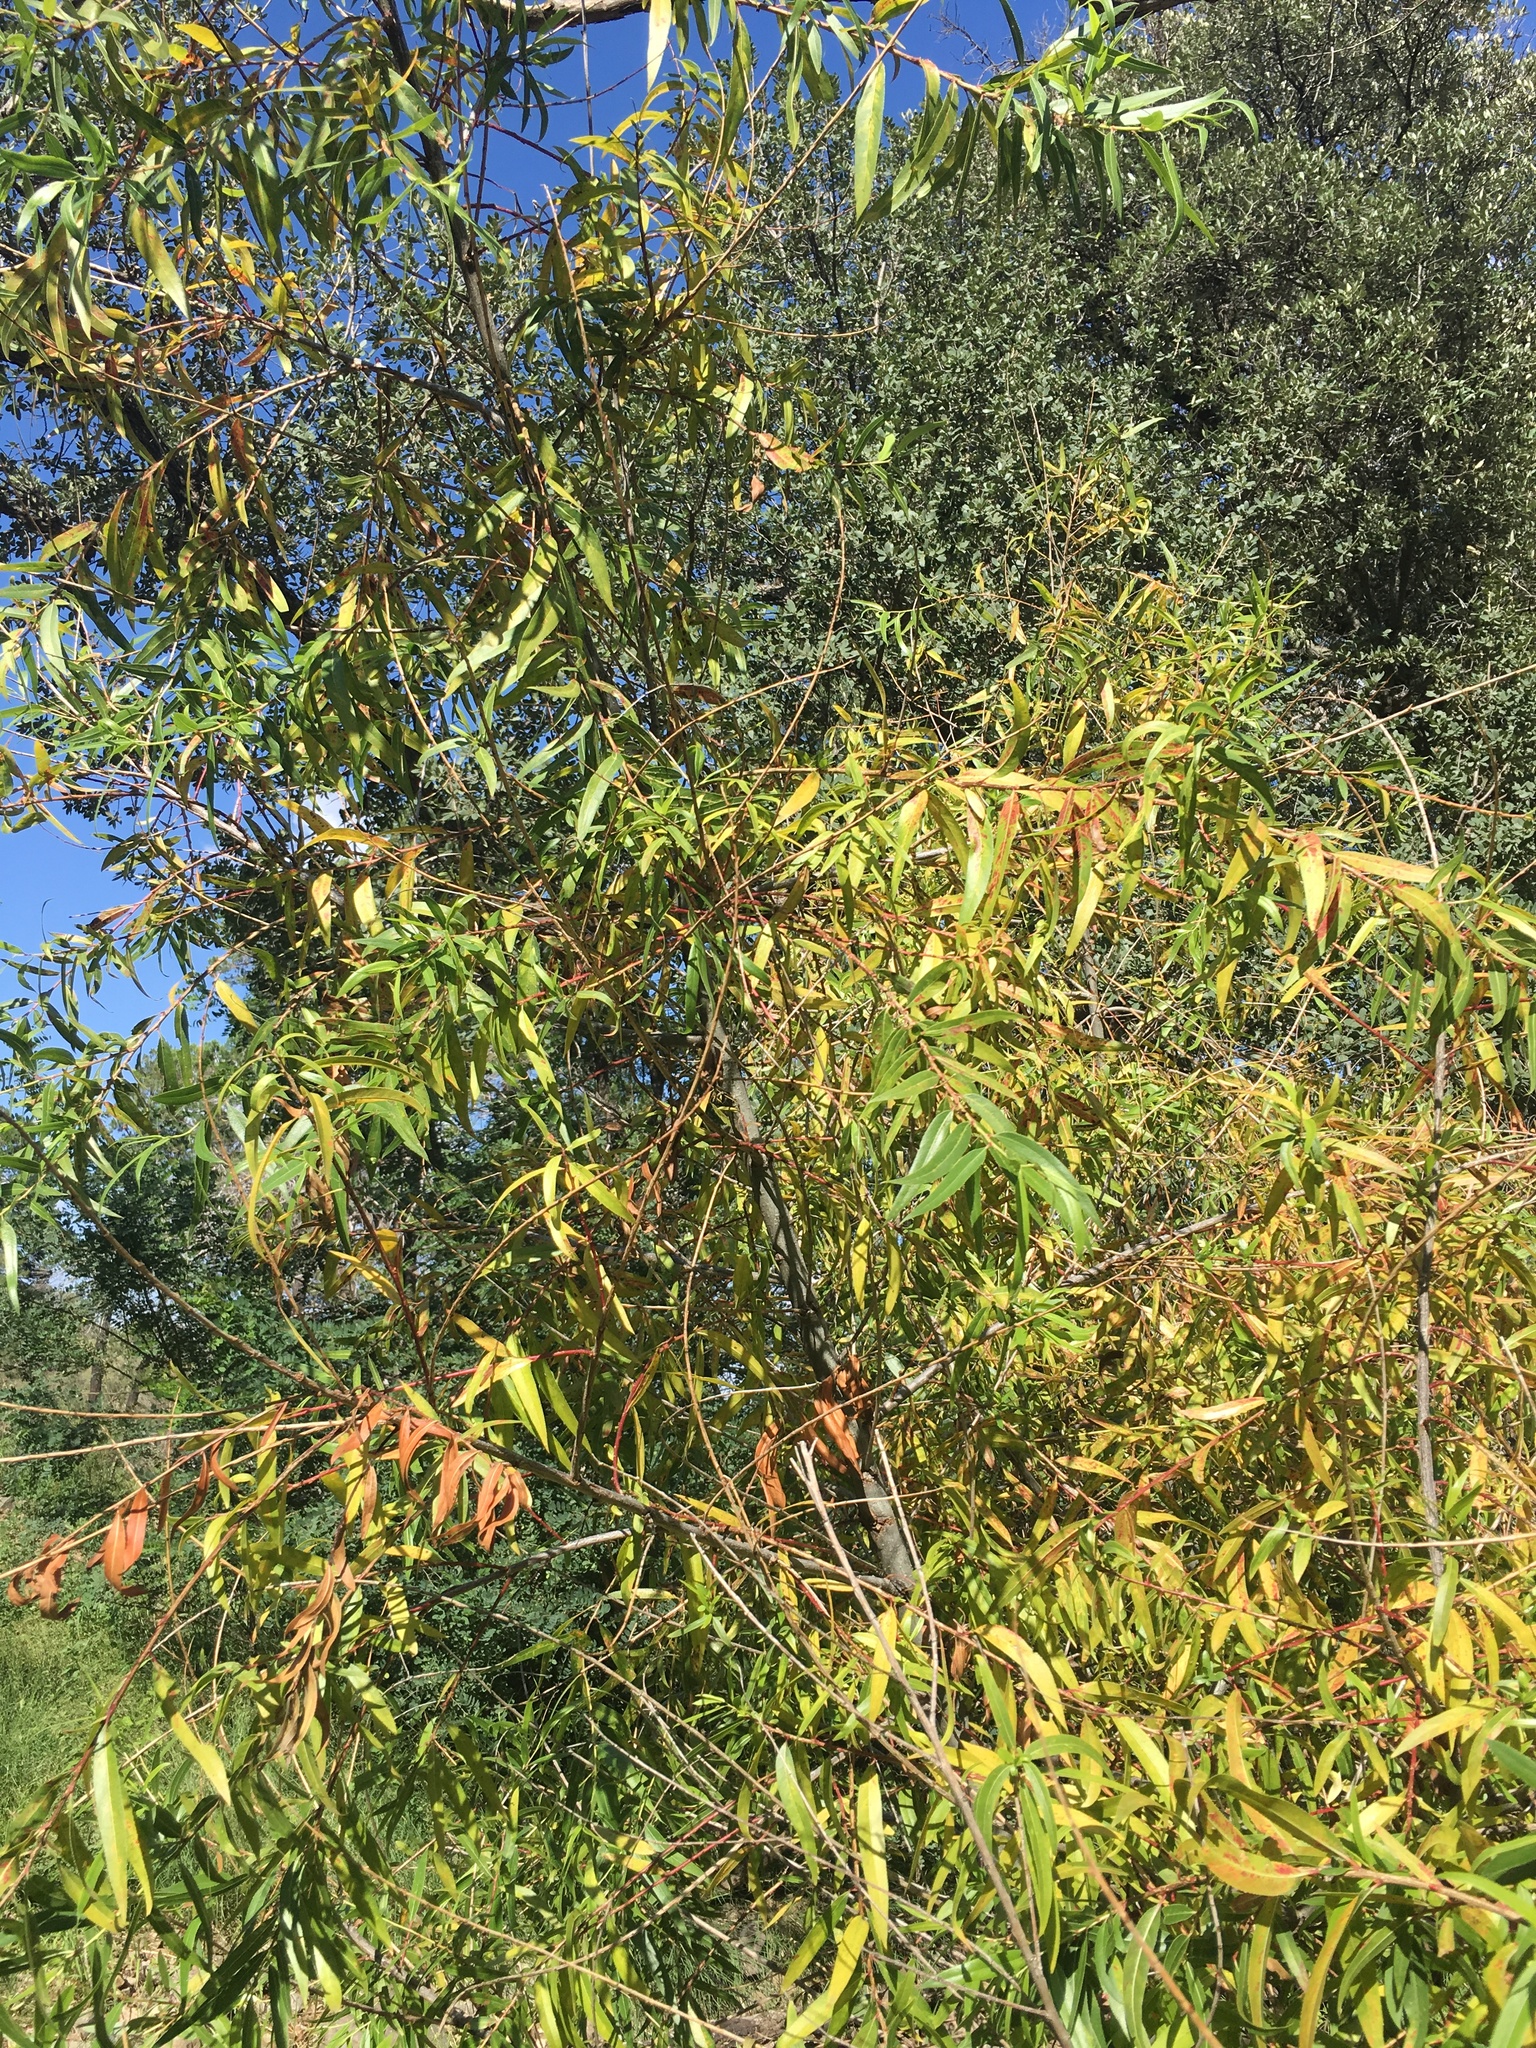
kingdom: Plantae
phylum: Tracheophyta
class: Magnoliopsida
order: Malpighiales
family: Salicaceae
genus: Salix
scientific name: Salix gooddingii
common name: Goodding's willow
